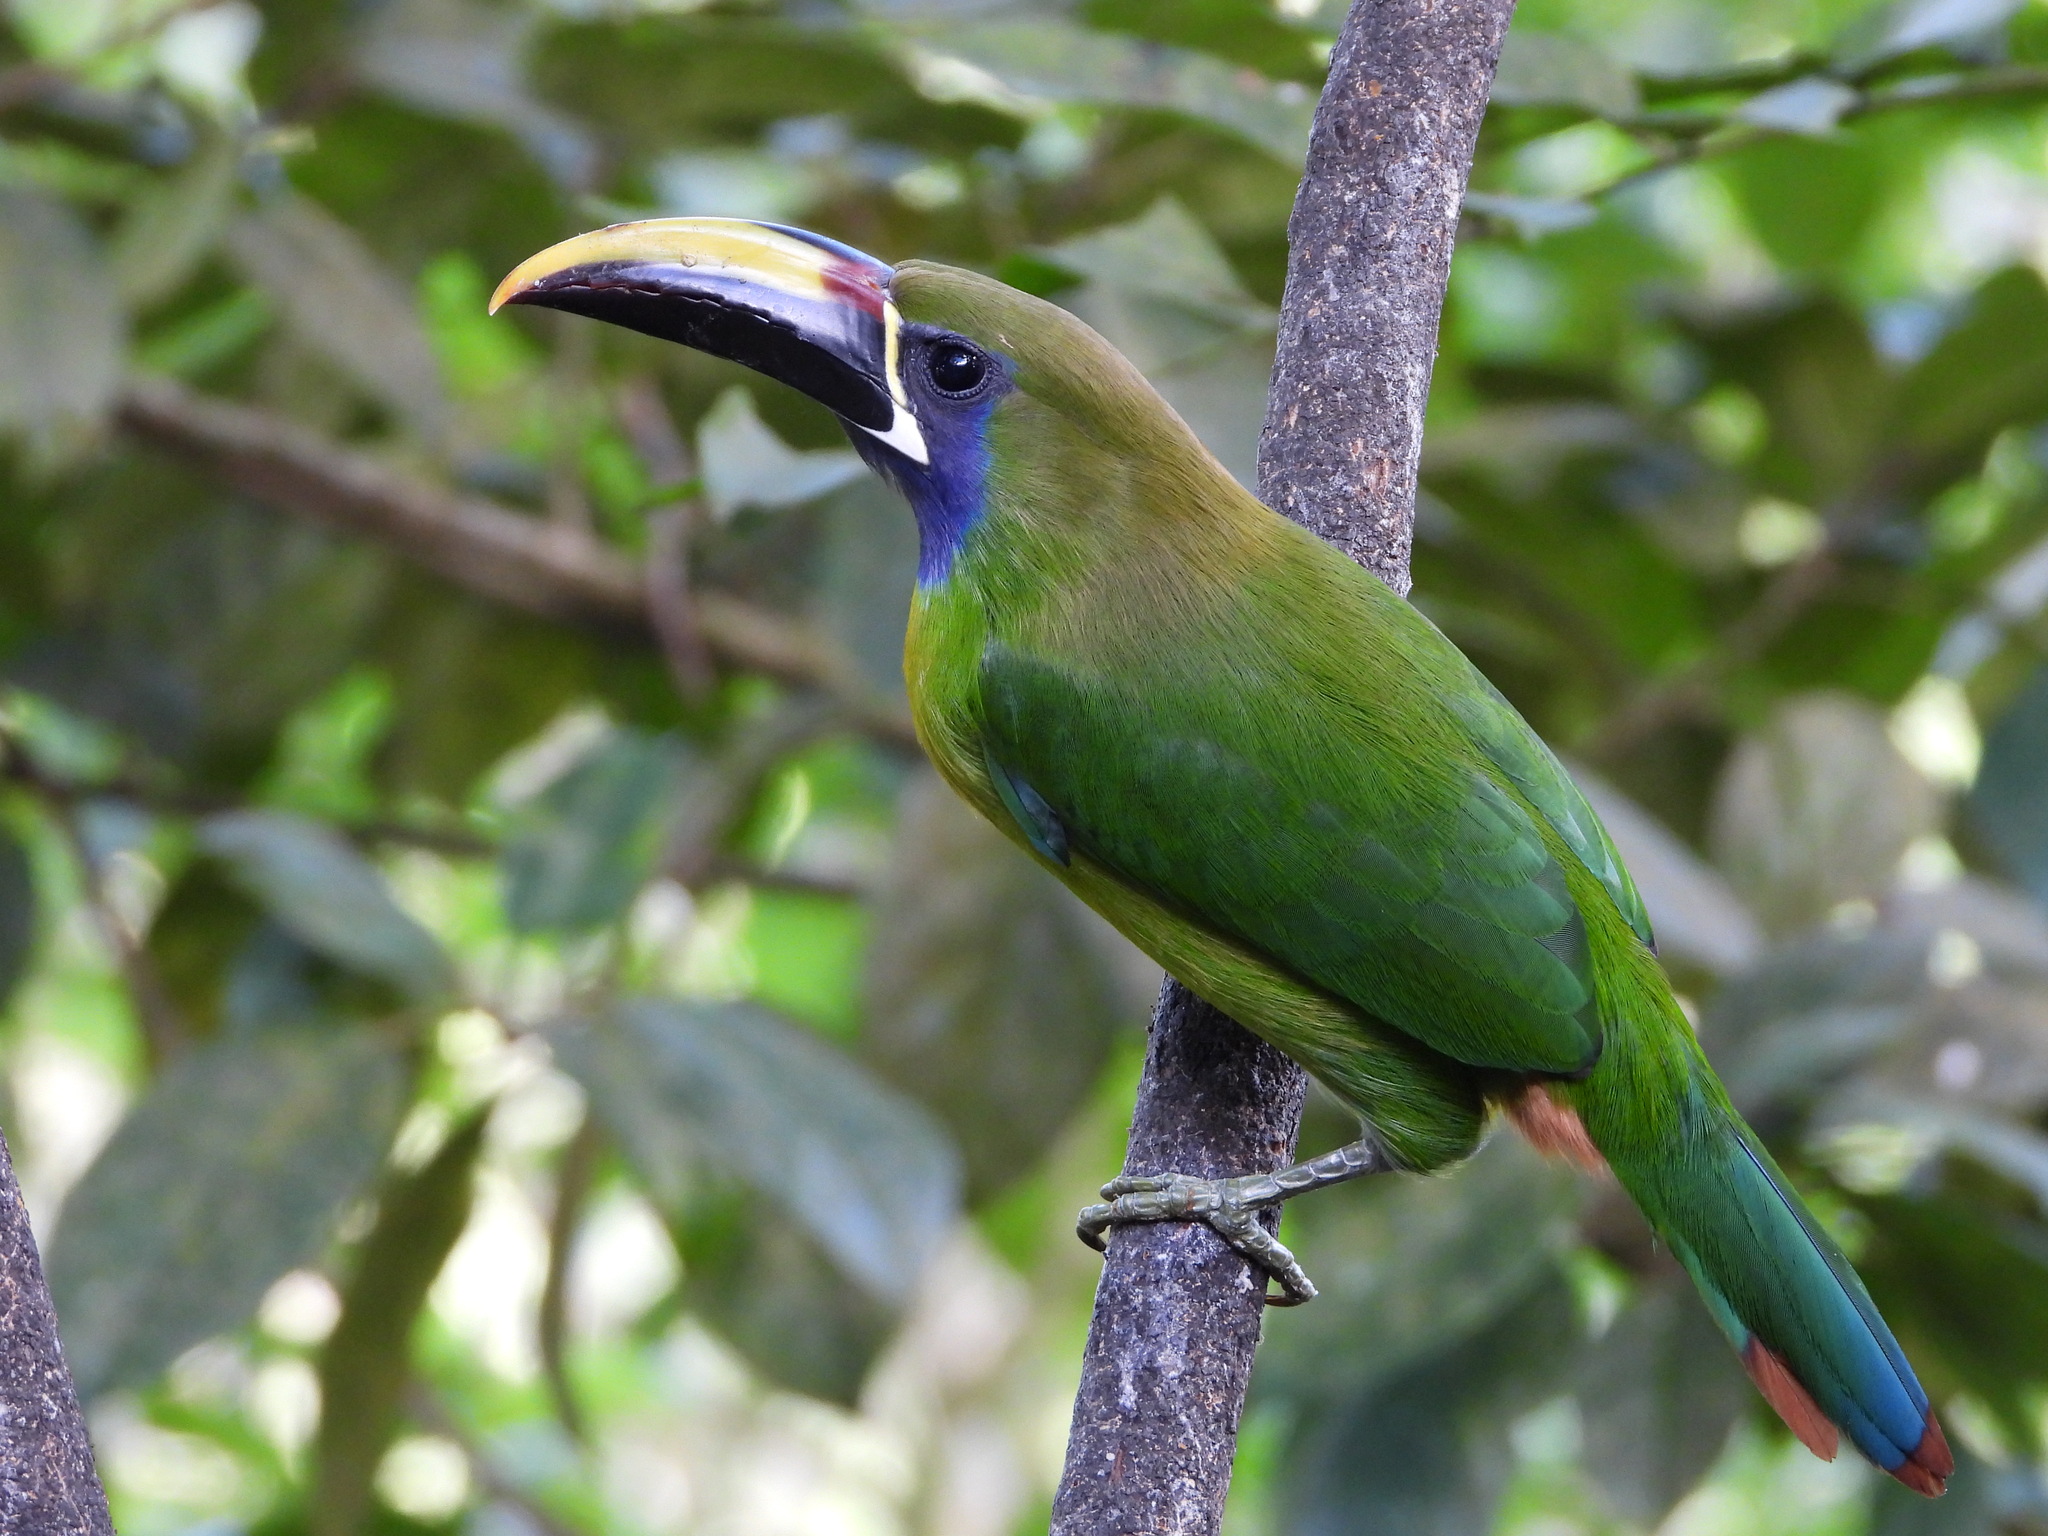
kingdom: Animalia
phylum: Chordata
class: Aves
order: Piciformes
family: Ramphastidae
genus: Aulacorhynchus
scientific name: Aulacorhynchus prasinus
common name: Emerald toucanet
